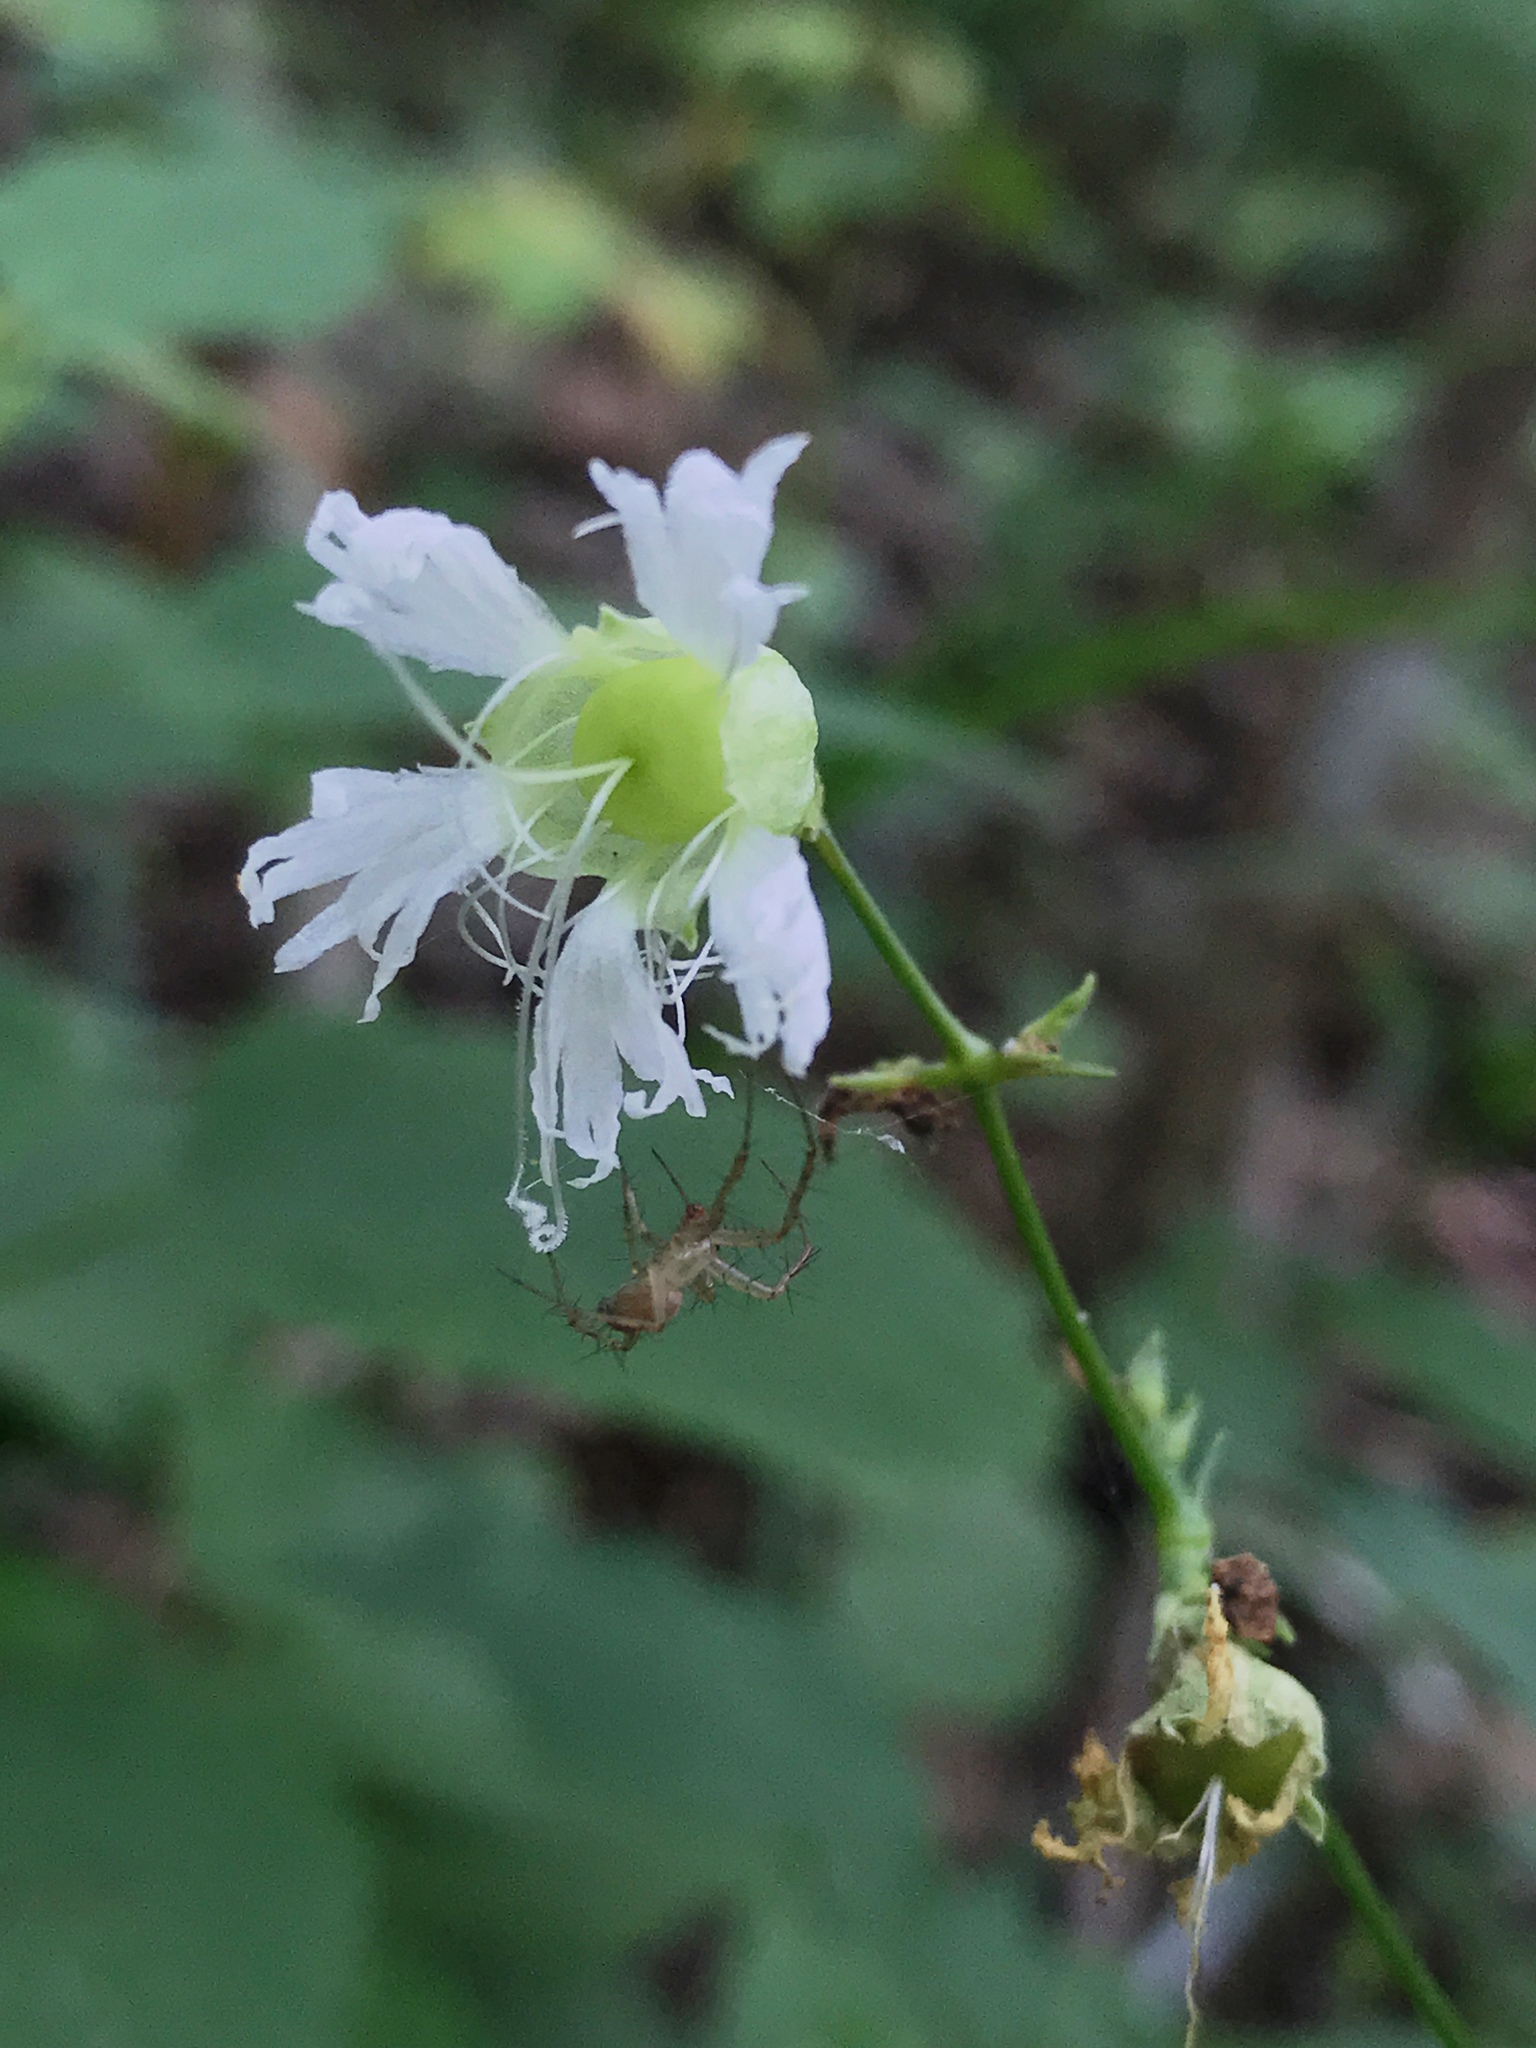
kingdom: Plantae
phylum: Tracheophyta
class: Magnoliopsida
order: Caryophyllales
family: Caryophyllaceae
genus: Silene
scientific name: Silene stellata
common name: Starry campion
